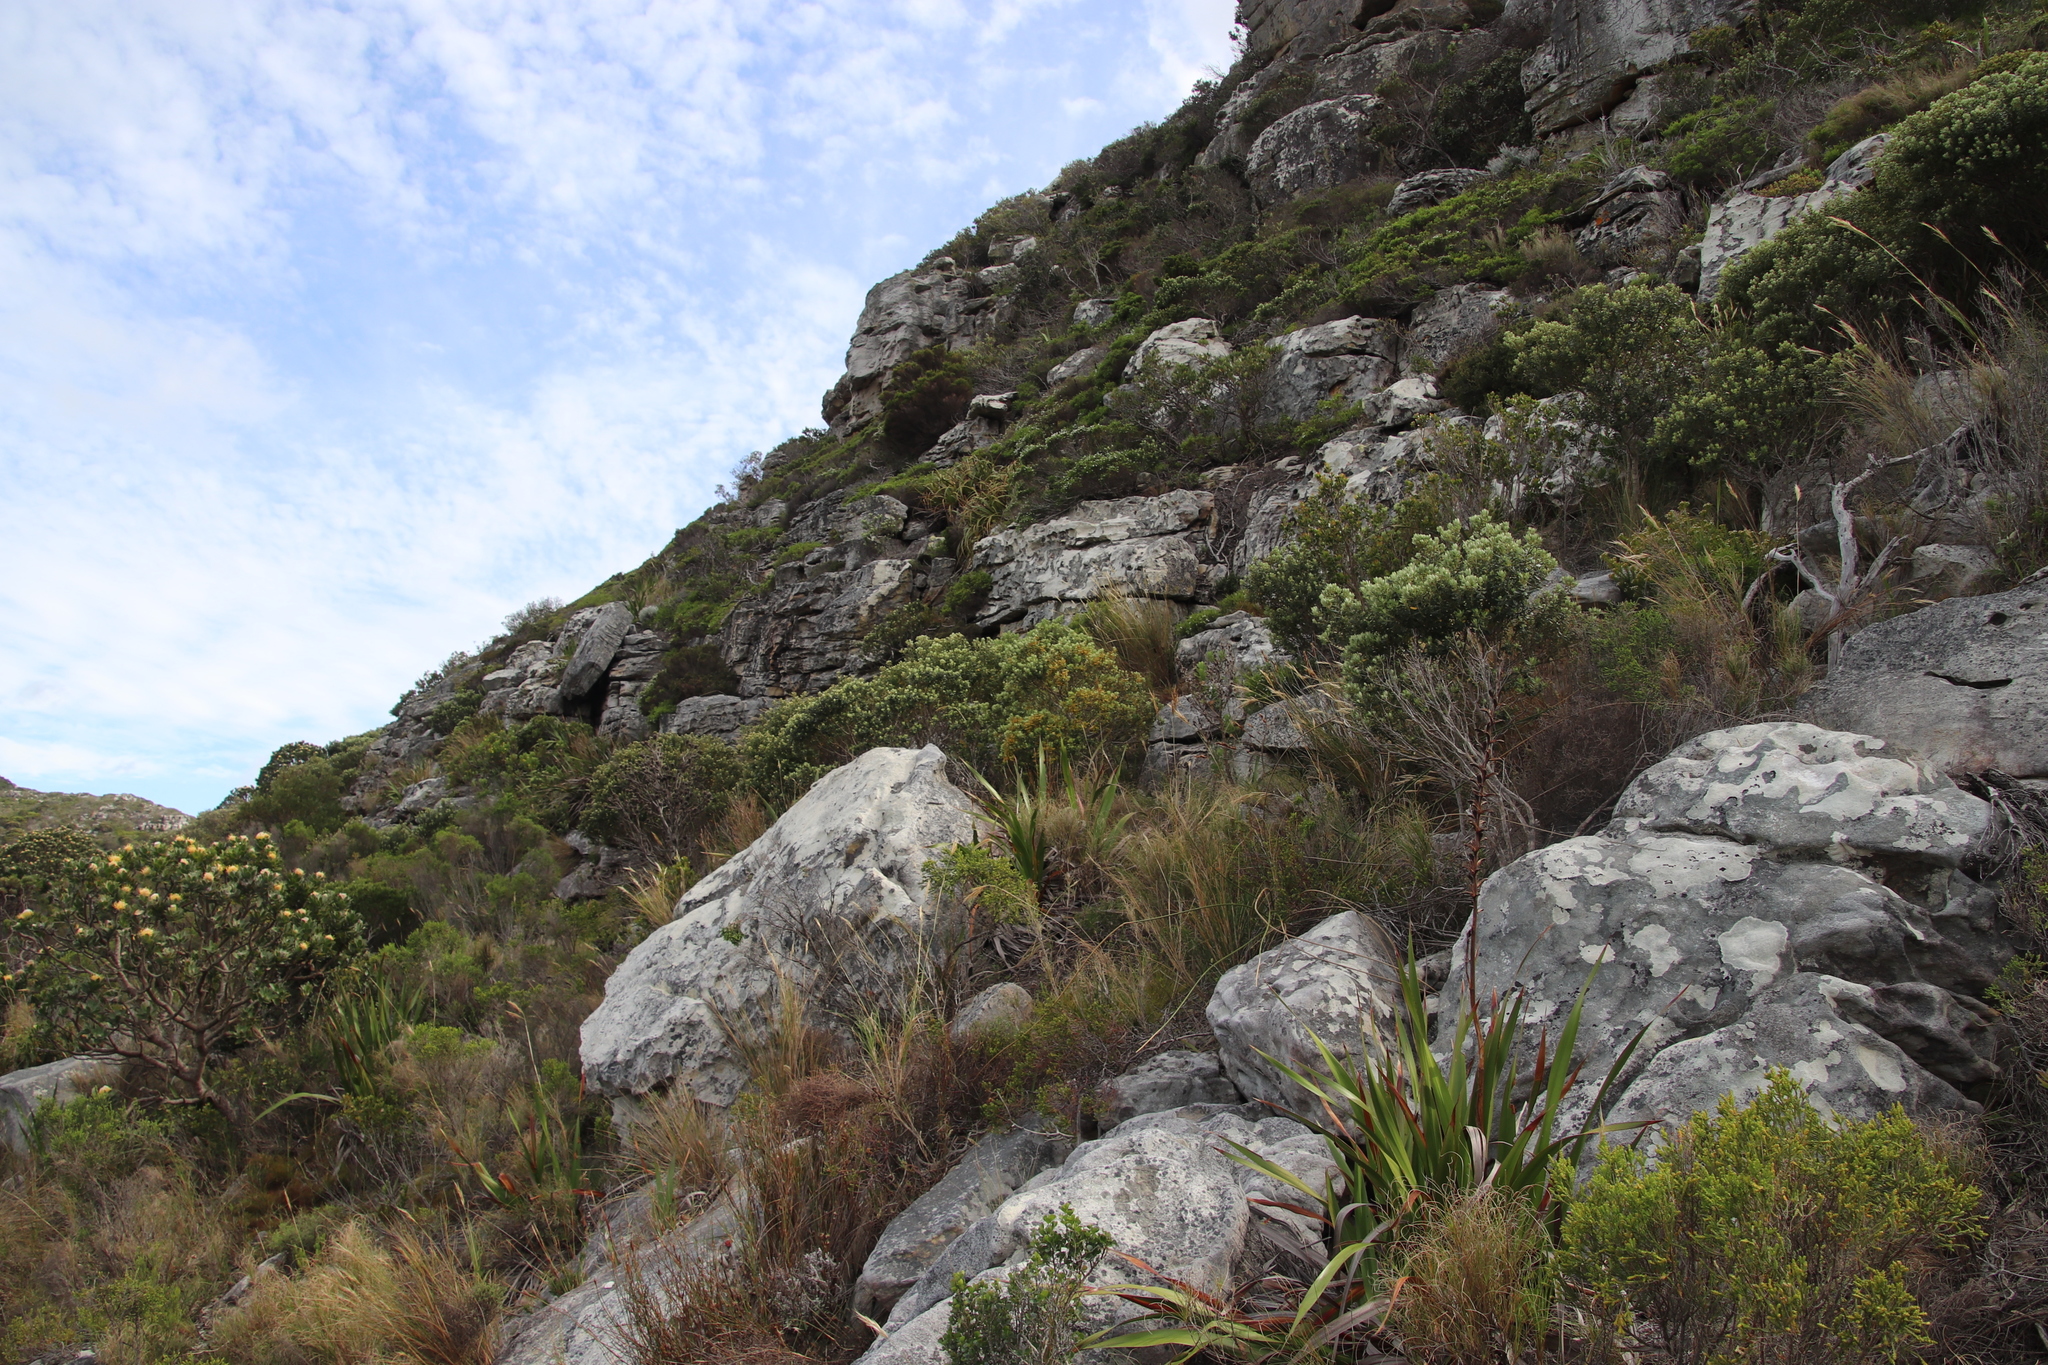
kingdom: Plantae
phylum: Tracheophyta
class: Magnoliopsida
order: Rosales
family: Rhamnaceae
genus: Phylica
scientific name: Phylica buxifolia
